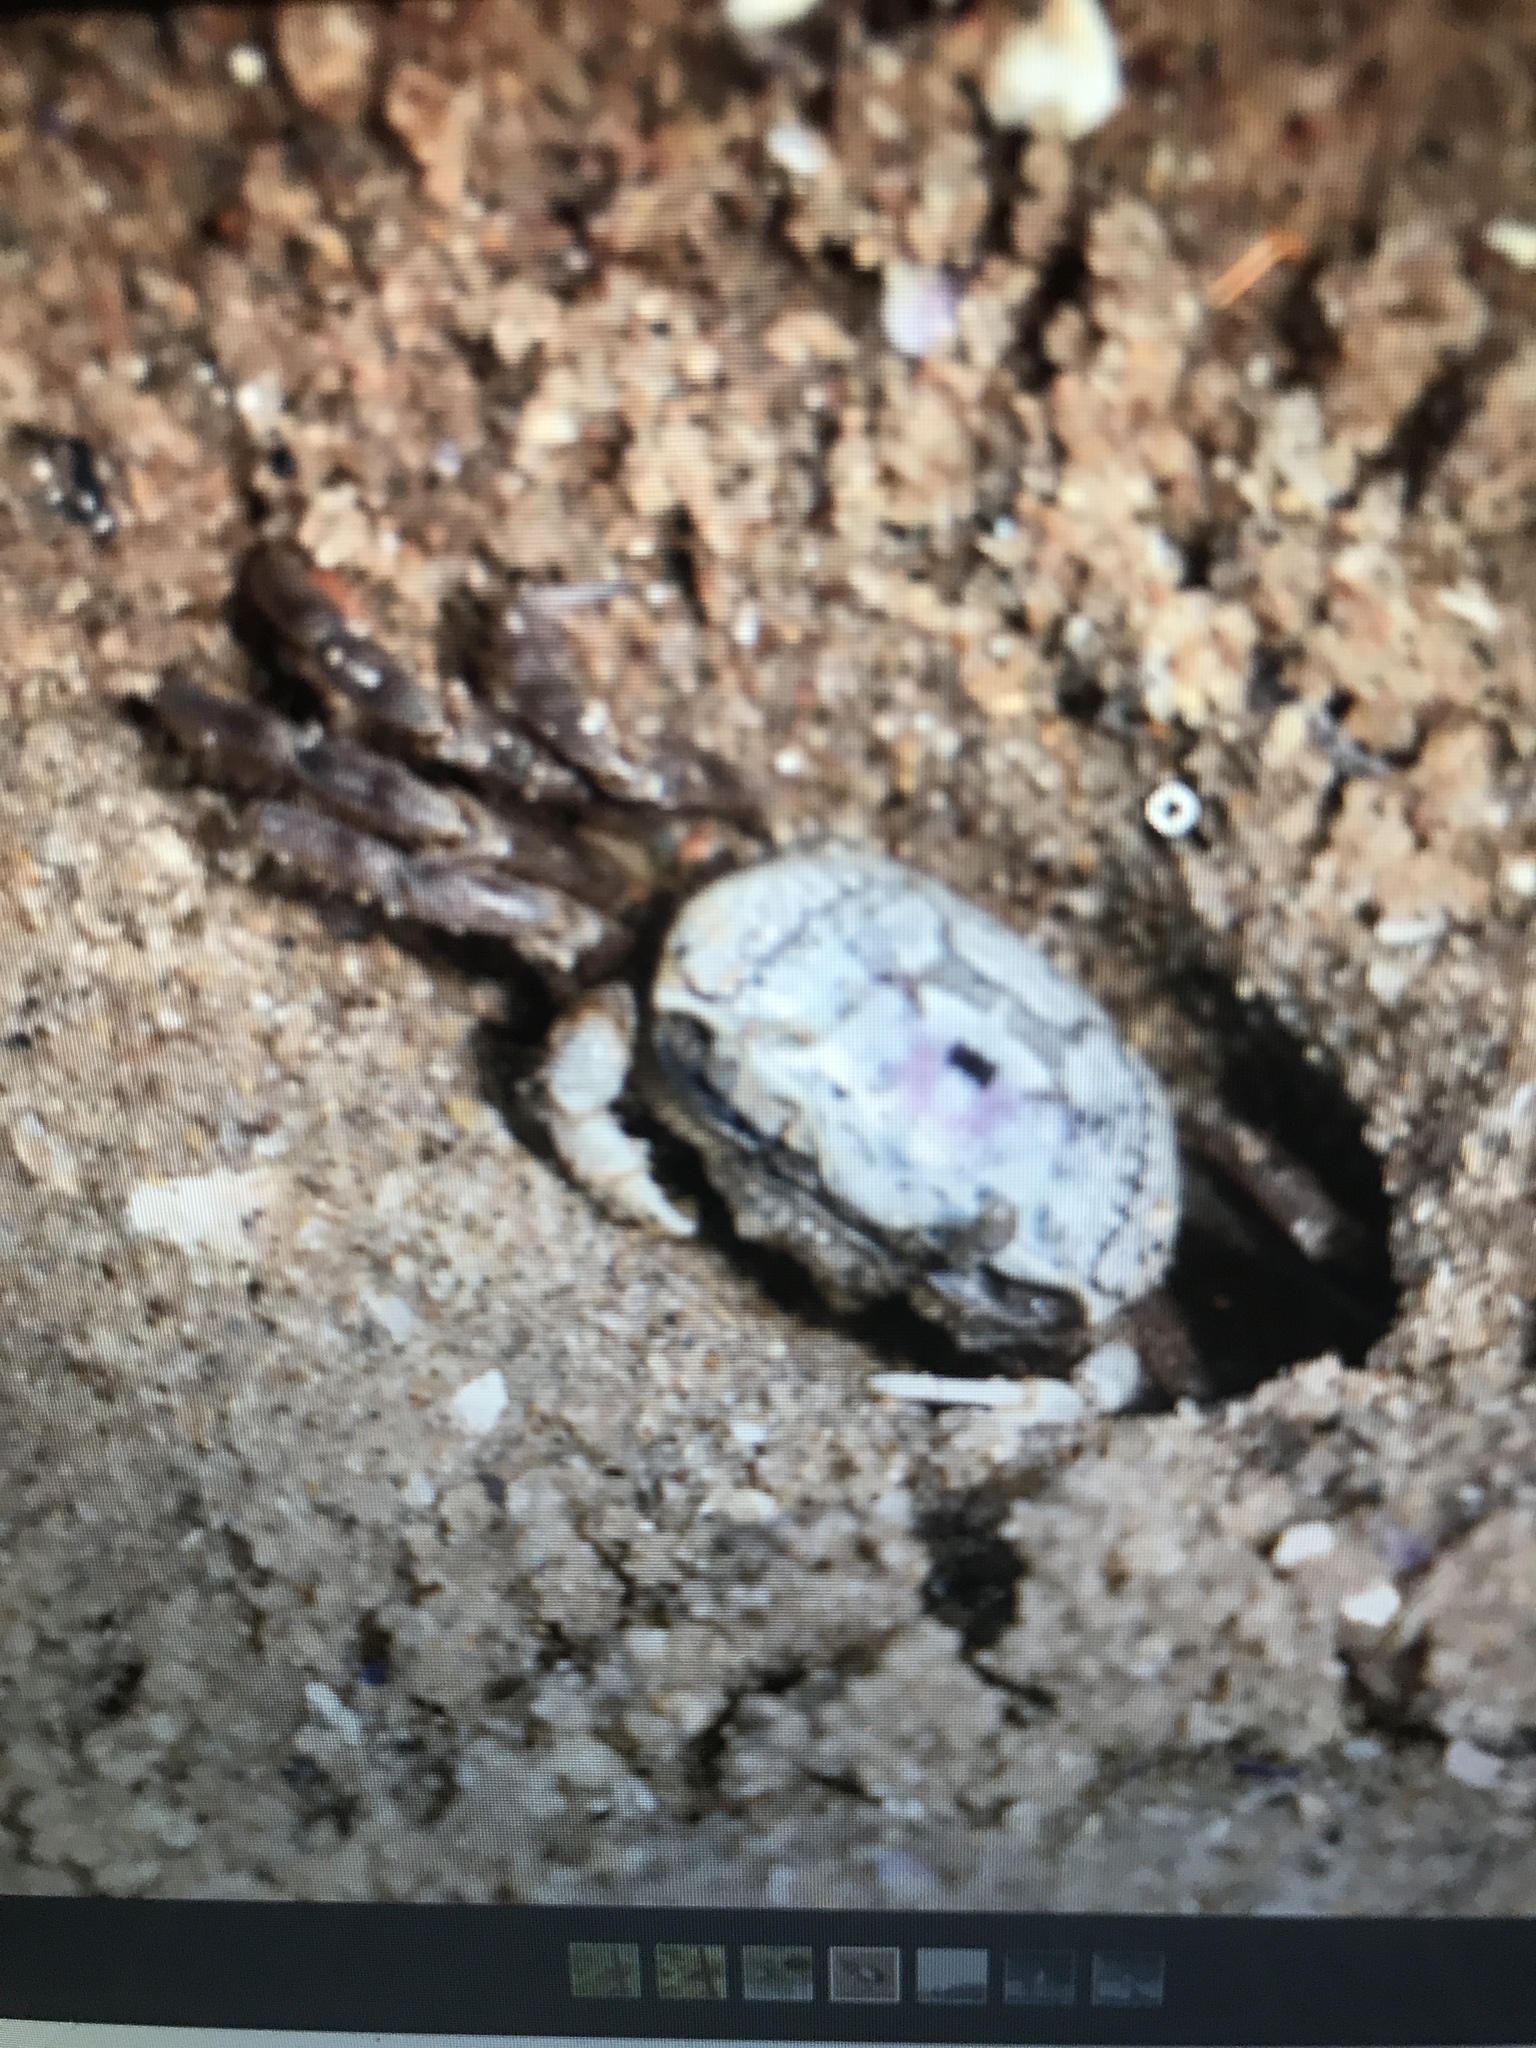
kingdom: Animalia
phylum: Arthropoda
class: Malacostraca
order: Decapoda
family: Ocypodidae
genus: Leptuca
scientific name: Leptuca pugilator
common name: Atlantic sand fiddler crab
